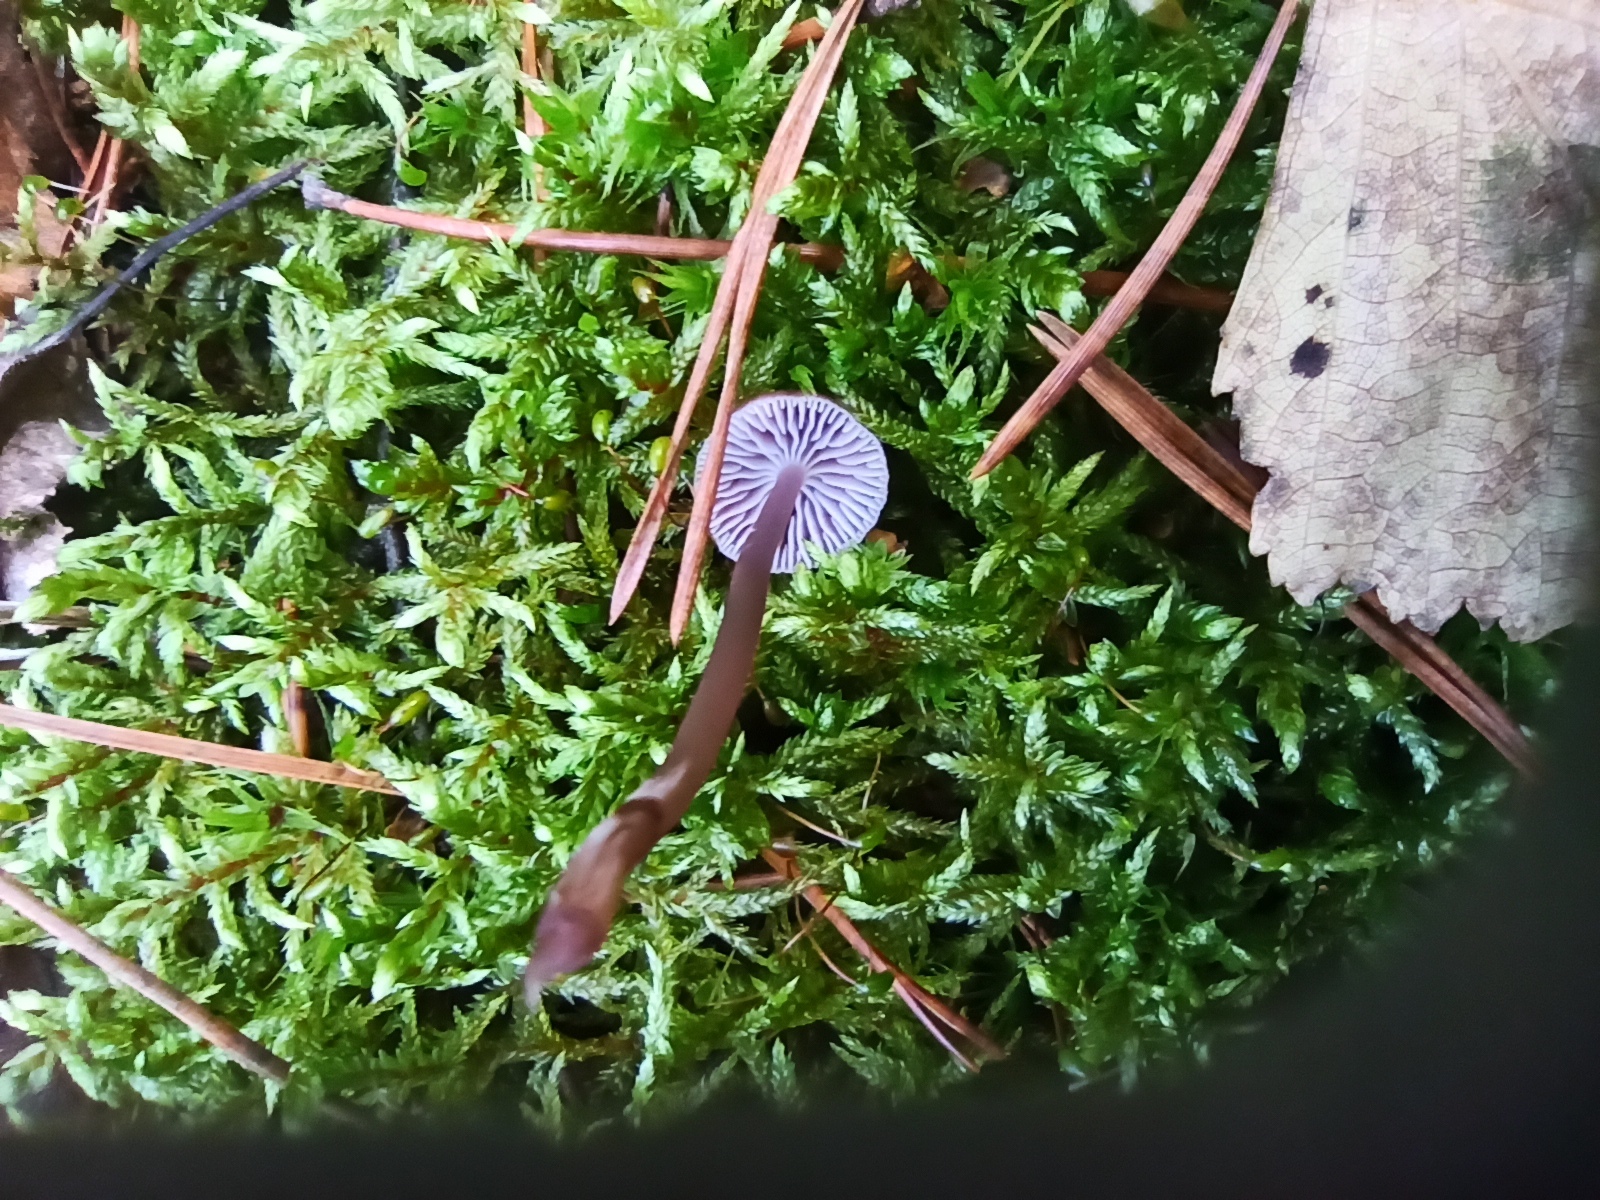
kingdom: Fungi
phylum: Basidiomycota
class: Agaricomycetes
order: Agaricales
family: Mycenaceae
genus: Mycena
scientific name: Mycena pearsoniana
